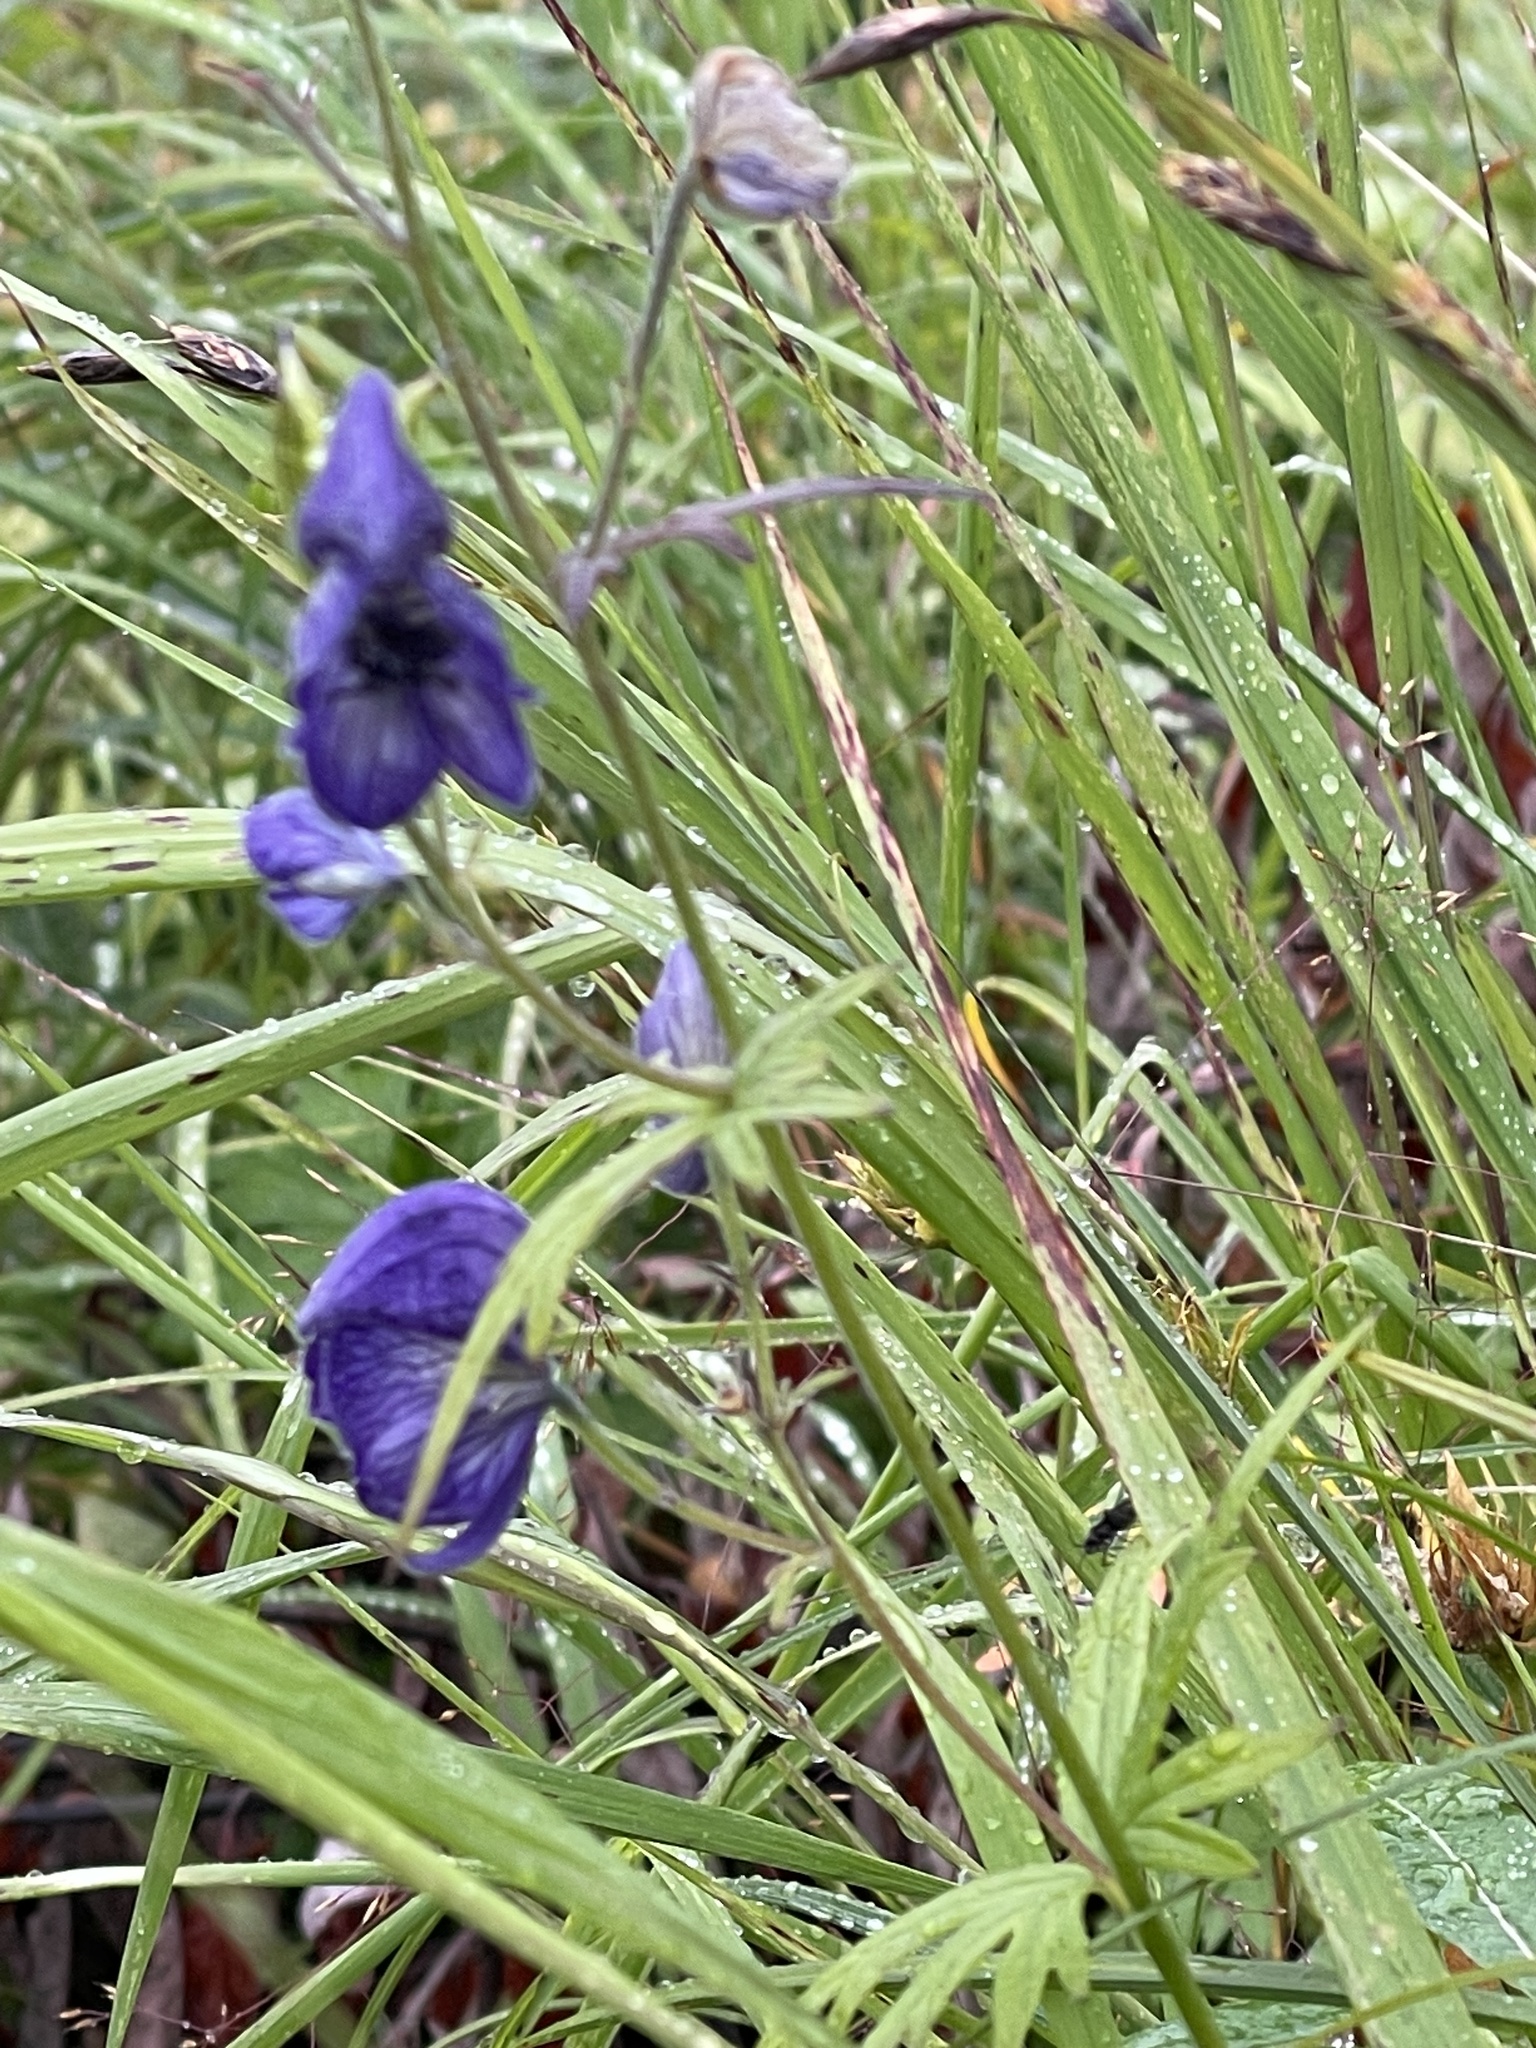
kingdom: Plantae
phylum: Tracheophyta
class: Magnoliopsida
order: Ranunculales
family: Ranunculaceae
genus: Aconitum
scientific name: Aconitum delphiniifolium
